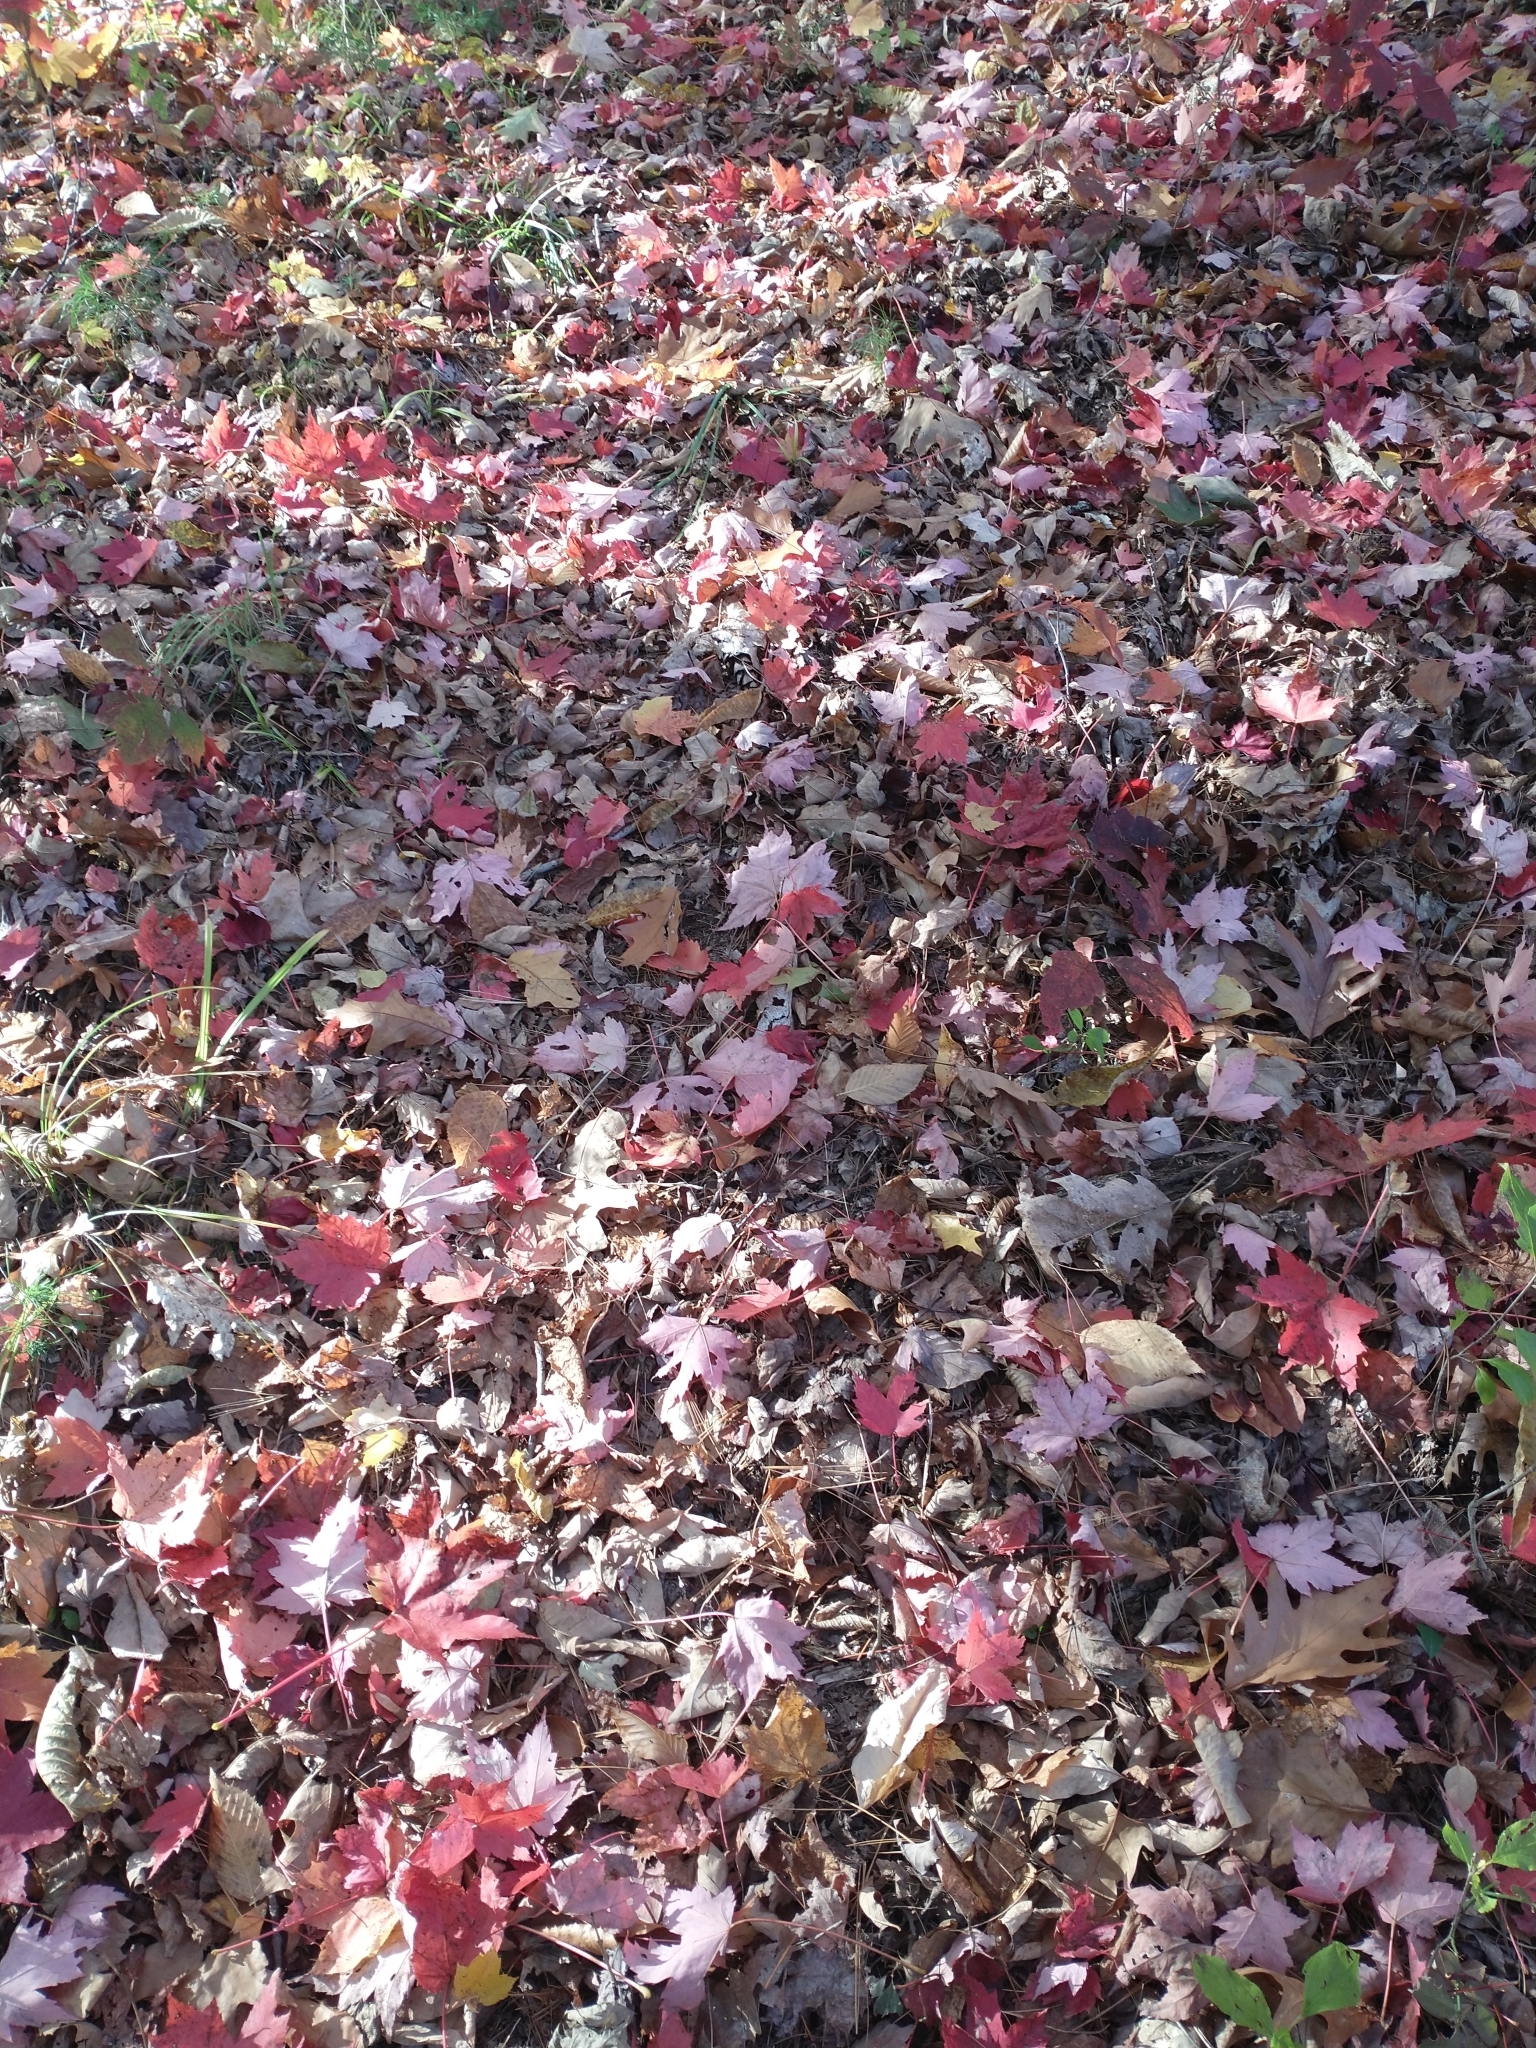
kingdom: Plantae
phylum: Tracheophyta
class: Magnoliopsida
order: Sapindales
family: Sapindaceae
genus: Acer
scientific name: Acer rubrum
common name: Red maple
